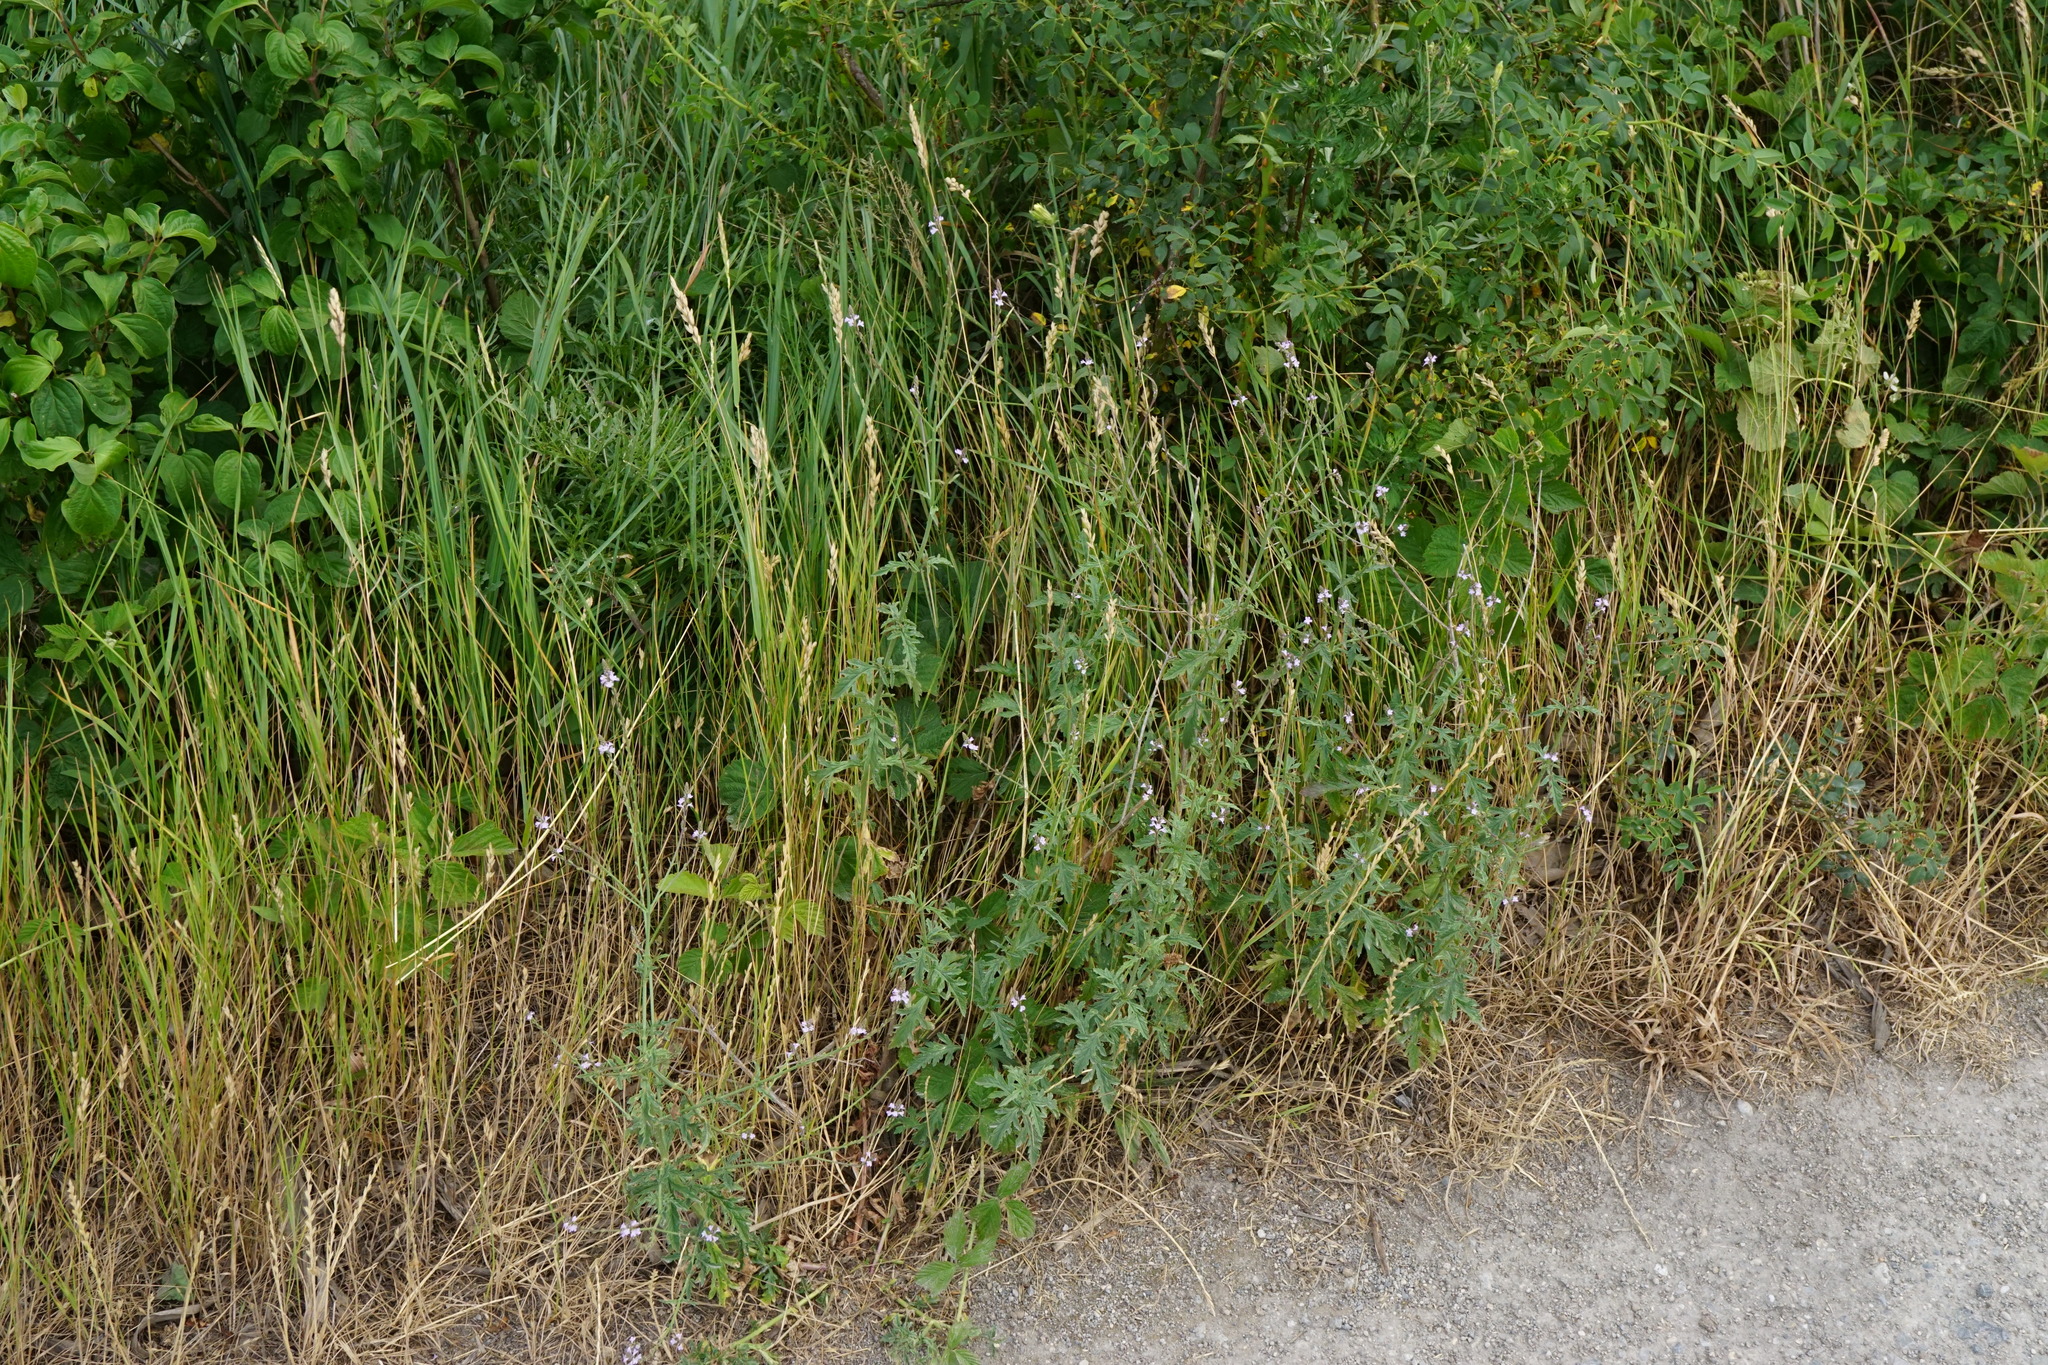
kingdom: Plantae
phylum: Tracheophyta
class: Magnoliopsida
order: Lamiales
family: Verbenaceae
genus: Verbena
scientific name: Verbena officinalis
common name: Vervain
